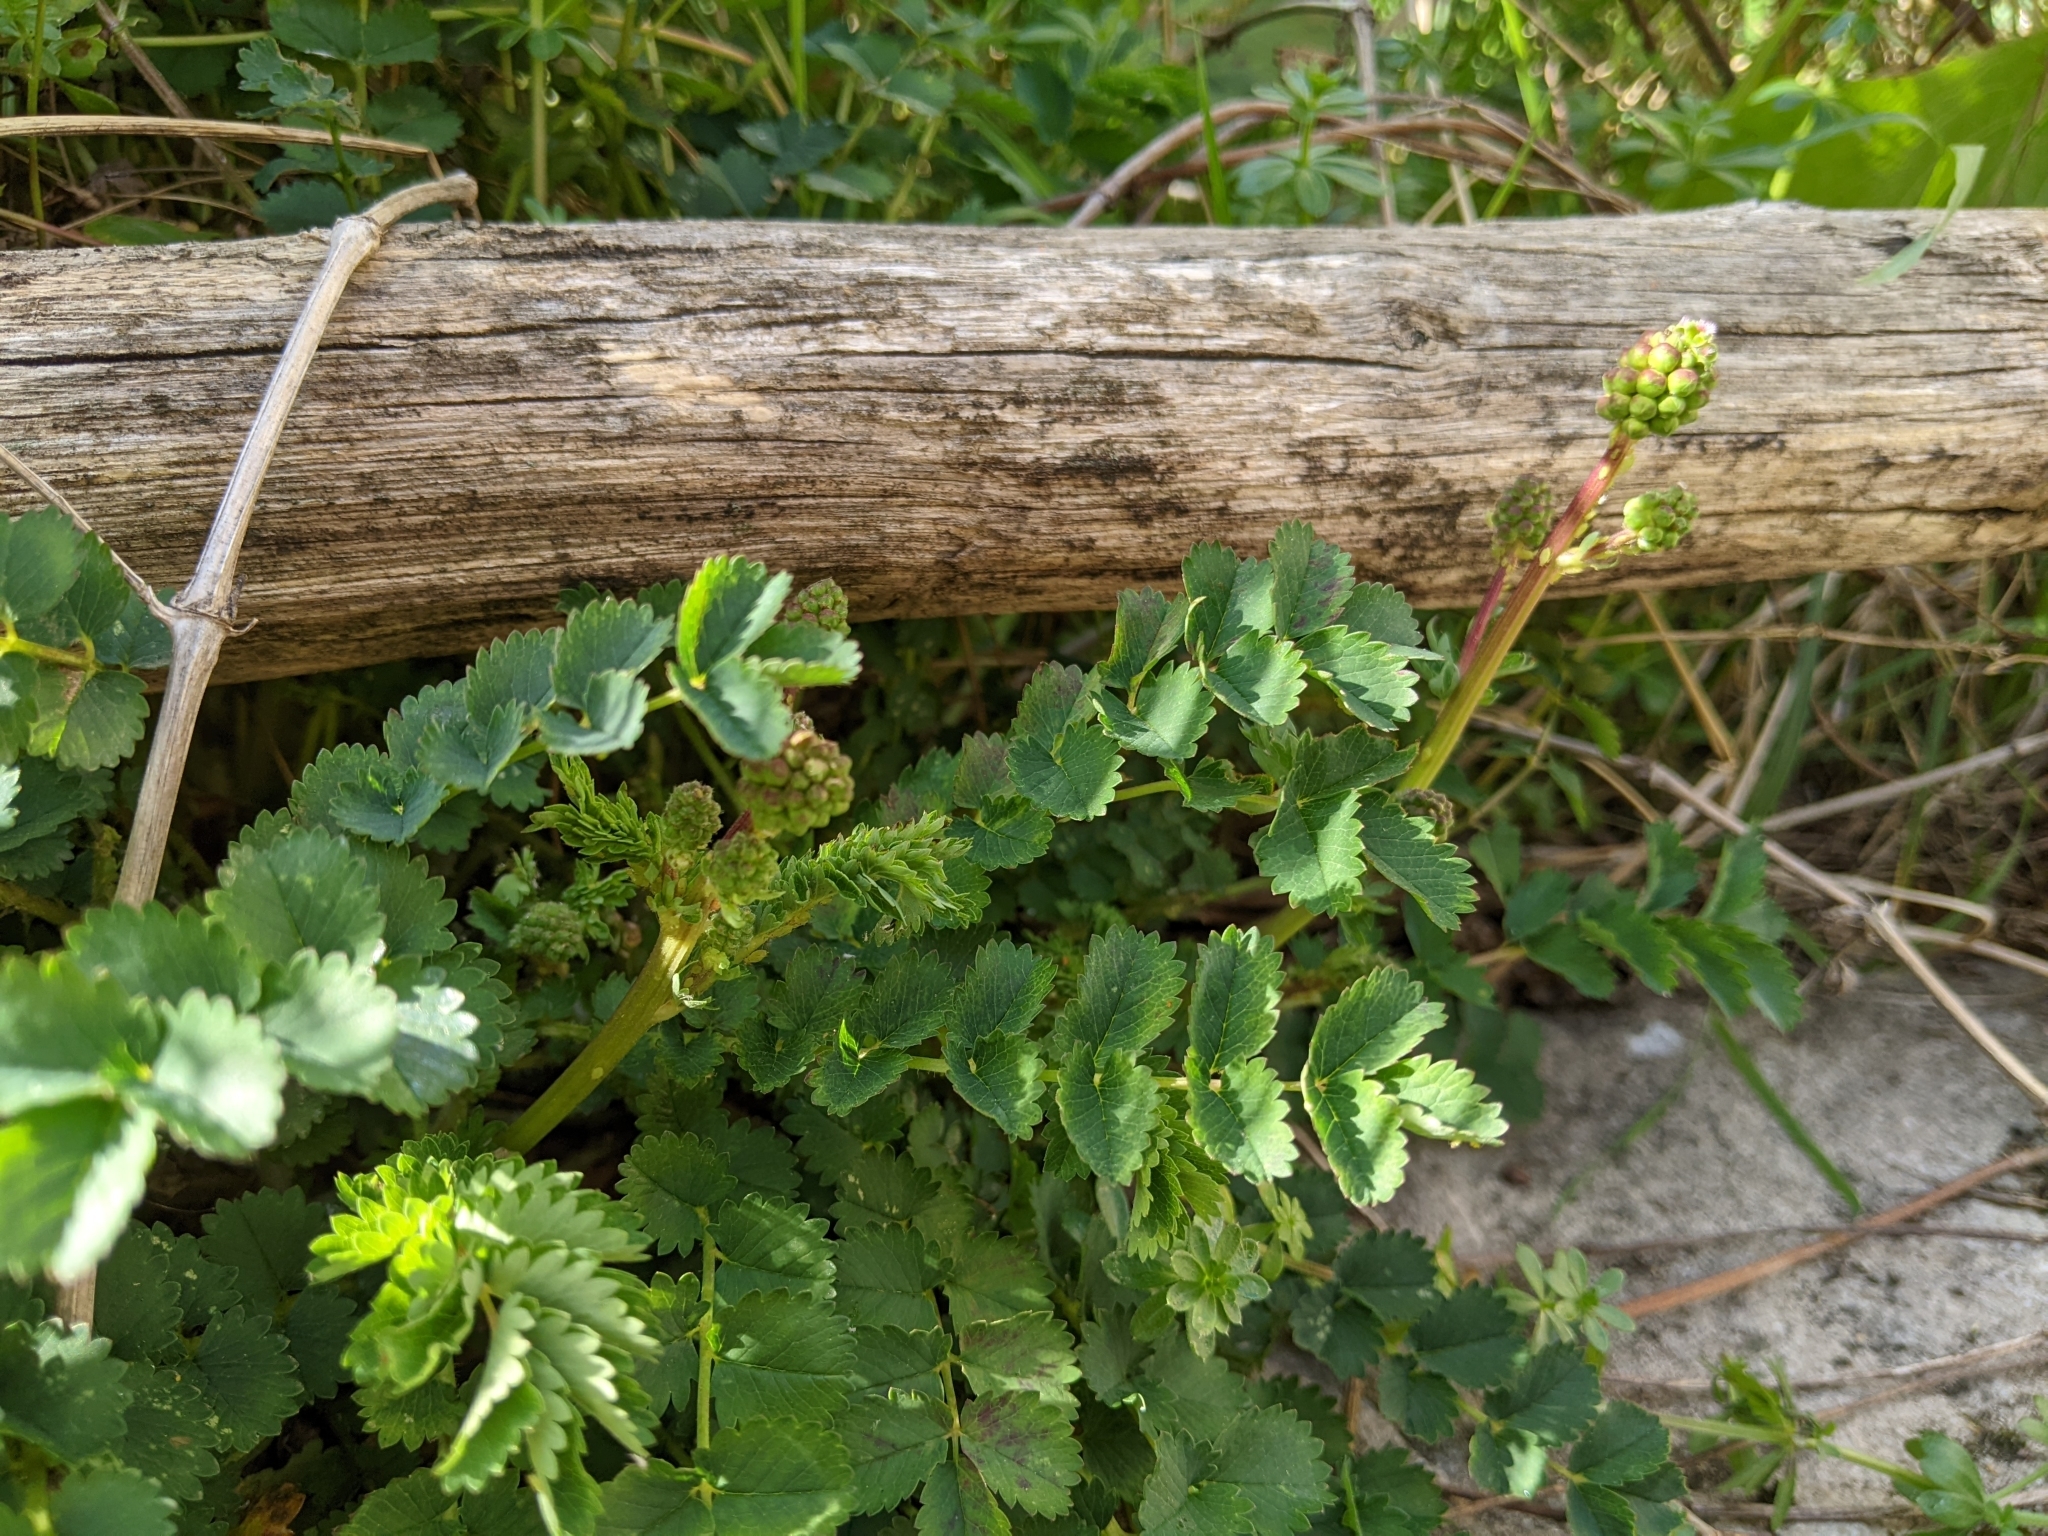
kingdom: Plantae
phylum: Tracheophyta
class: Magnoliopsida
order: Rosales
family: Rosaceae
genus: Poterium
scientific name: Poterium sanguisorba
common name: Salad burnet
